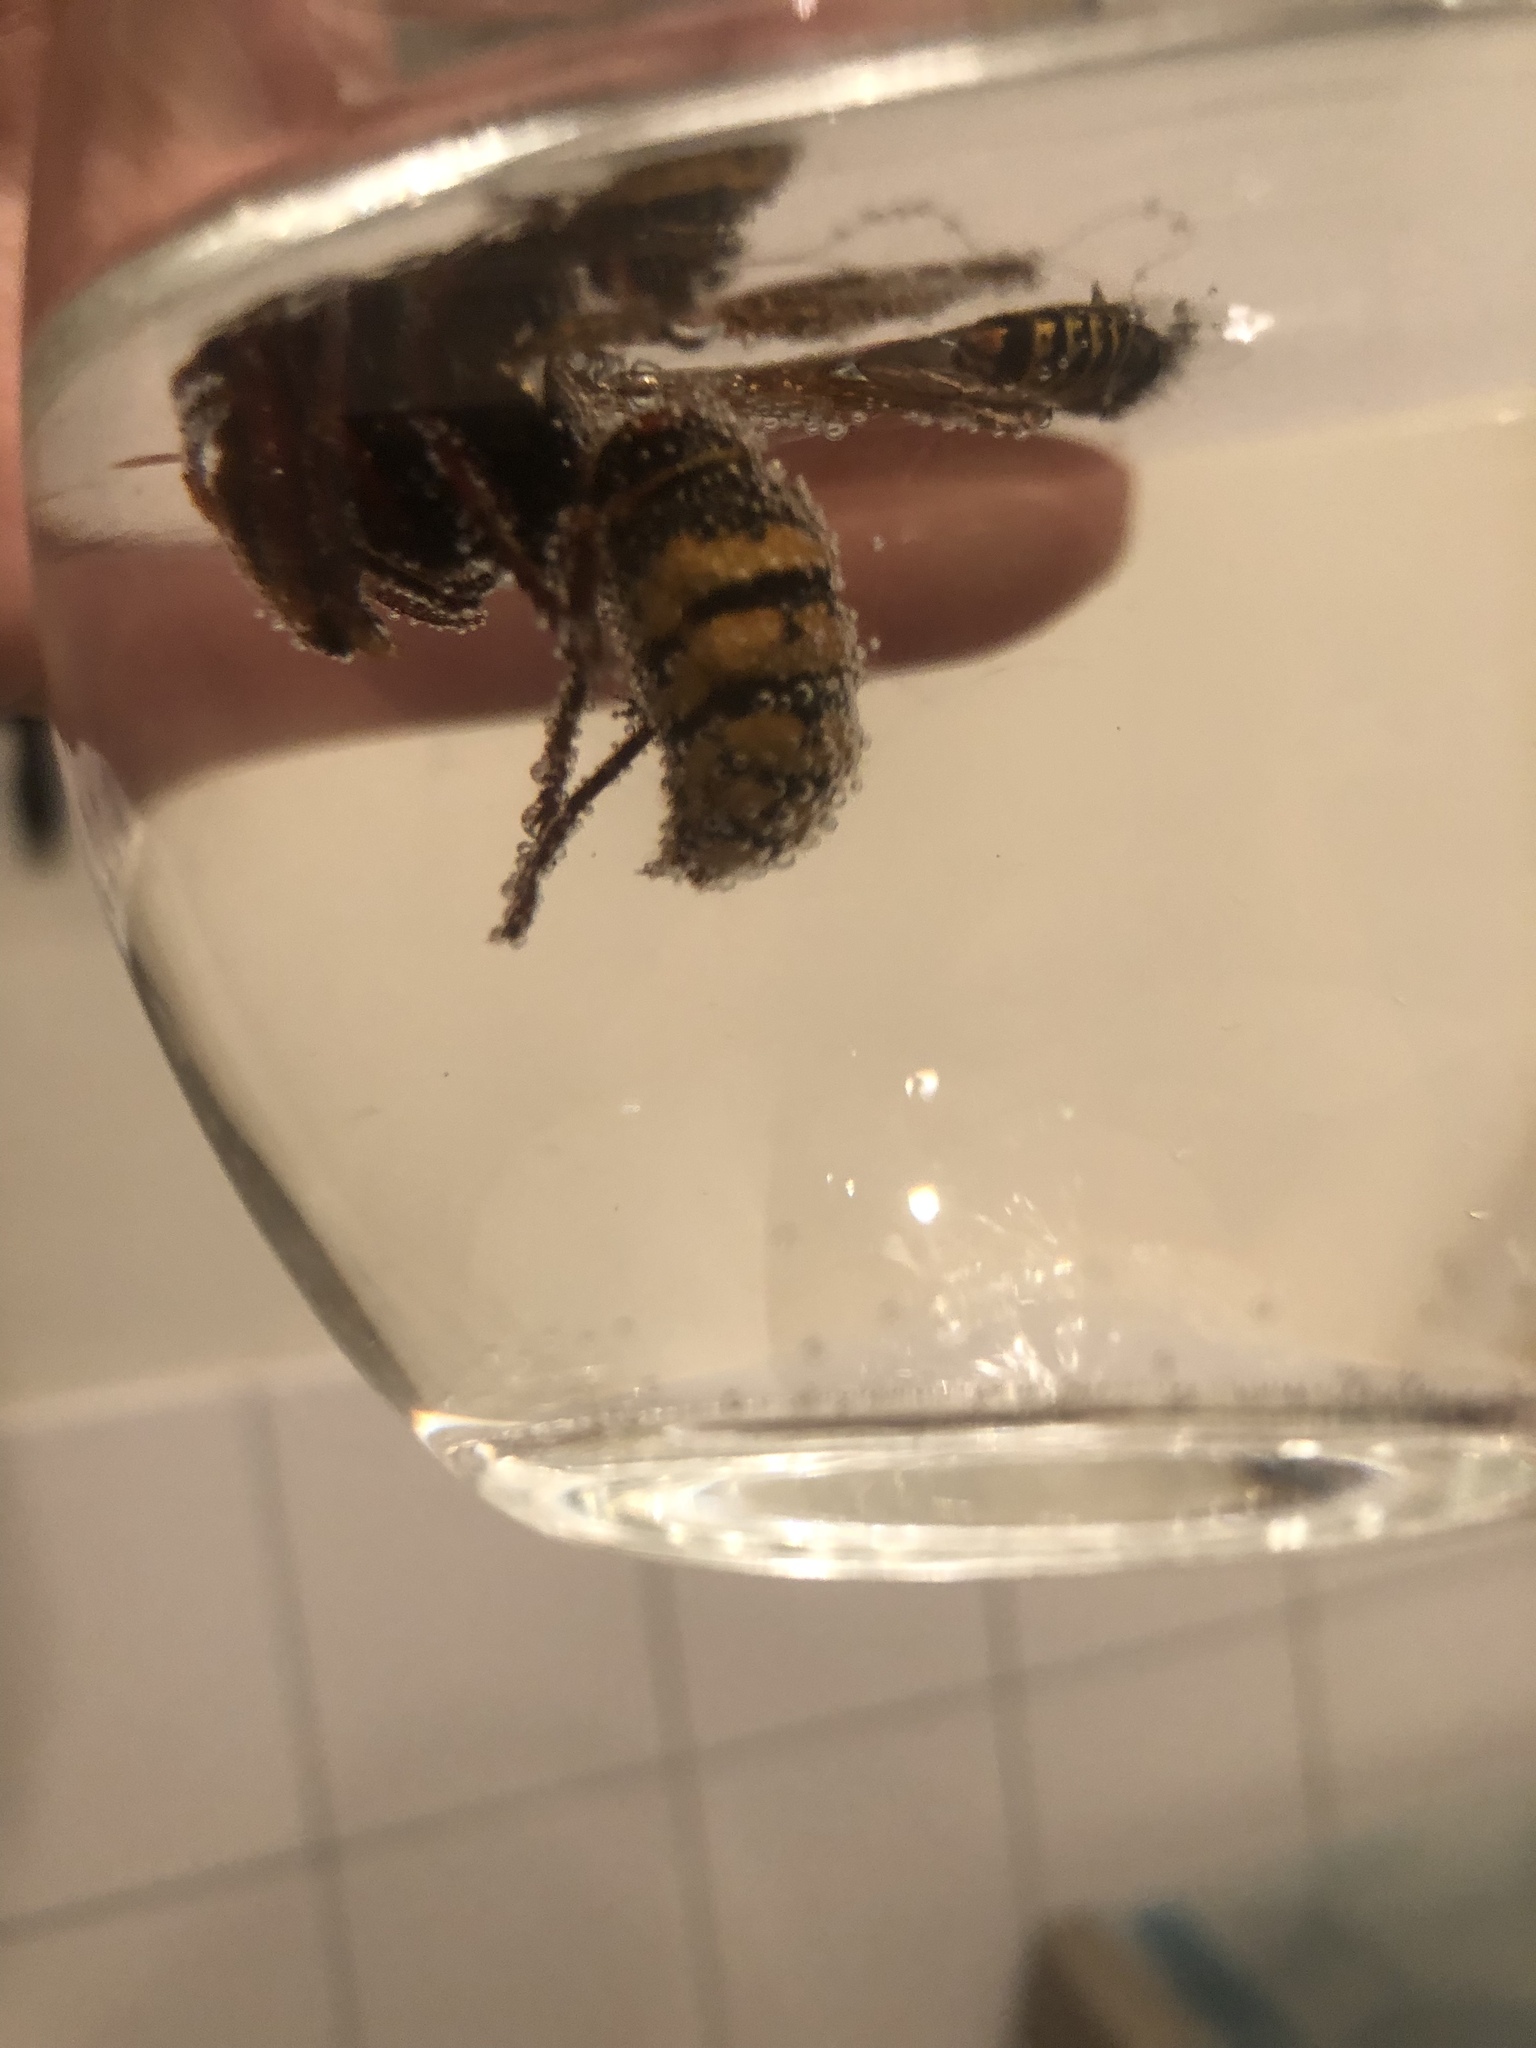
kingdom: Animalia
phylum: Arthropoda
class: Insecta
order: Hymenoptera
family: Vespidae
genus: Vespa
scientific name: Vespa crabro
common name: Hornet
